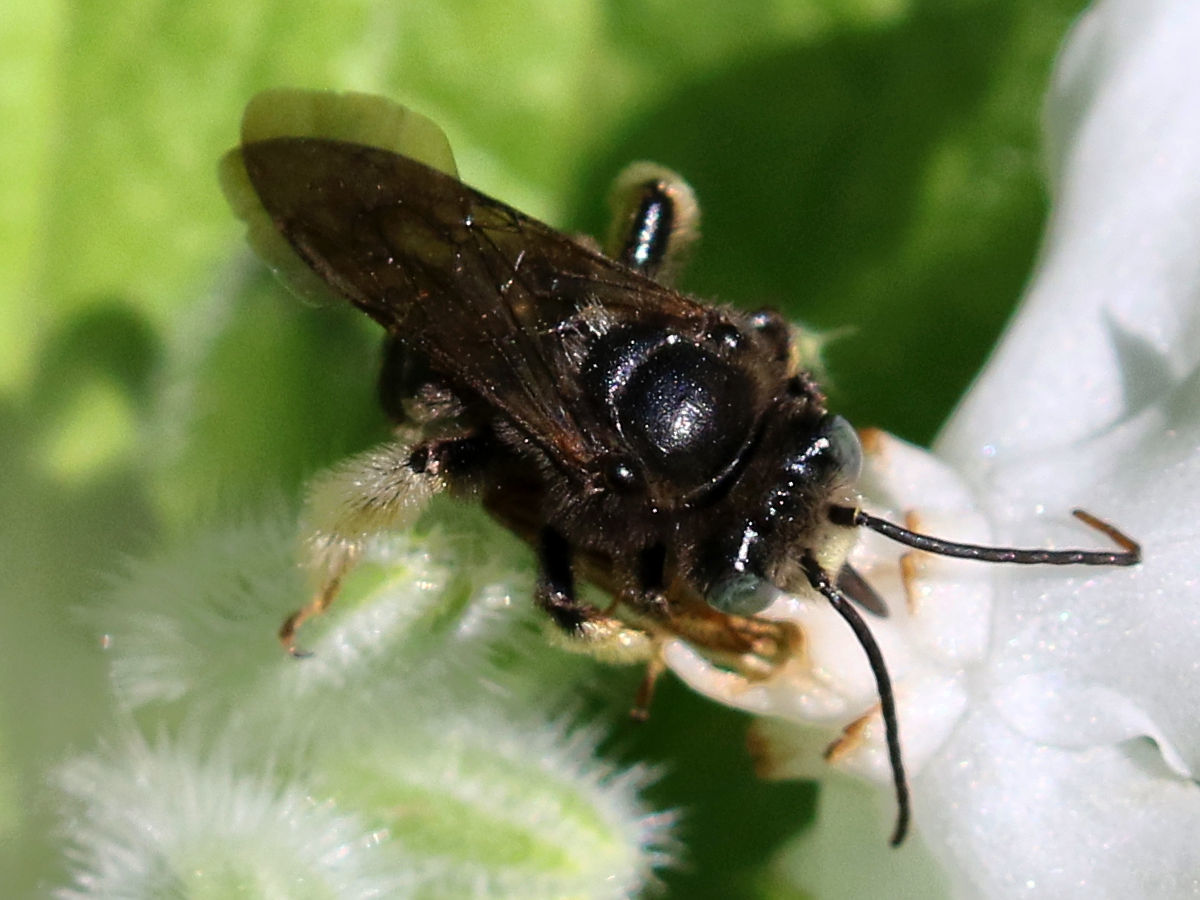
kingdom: Animalia
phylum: Arthropoda
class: Insecta
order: Hymenoptera
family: Apidae
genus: Melissodes
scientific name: Melissodes bimaculatus
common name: Two-spotted long-horned bee
